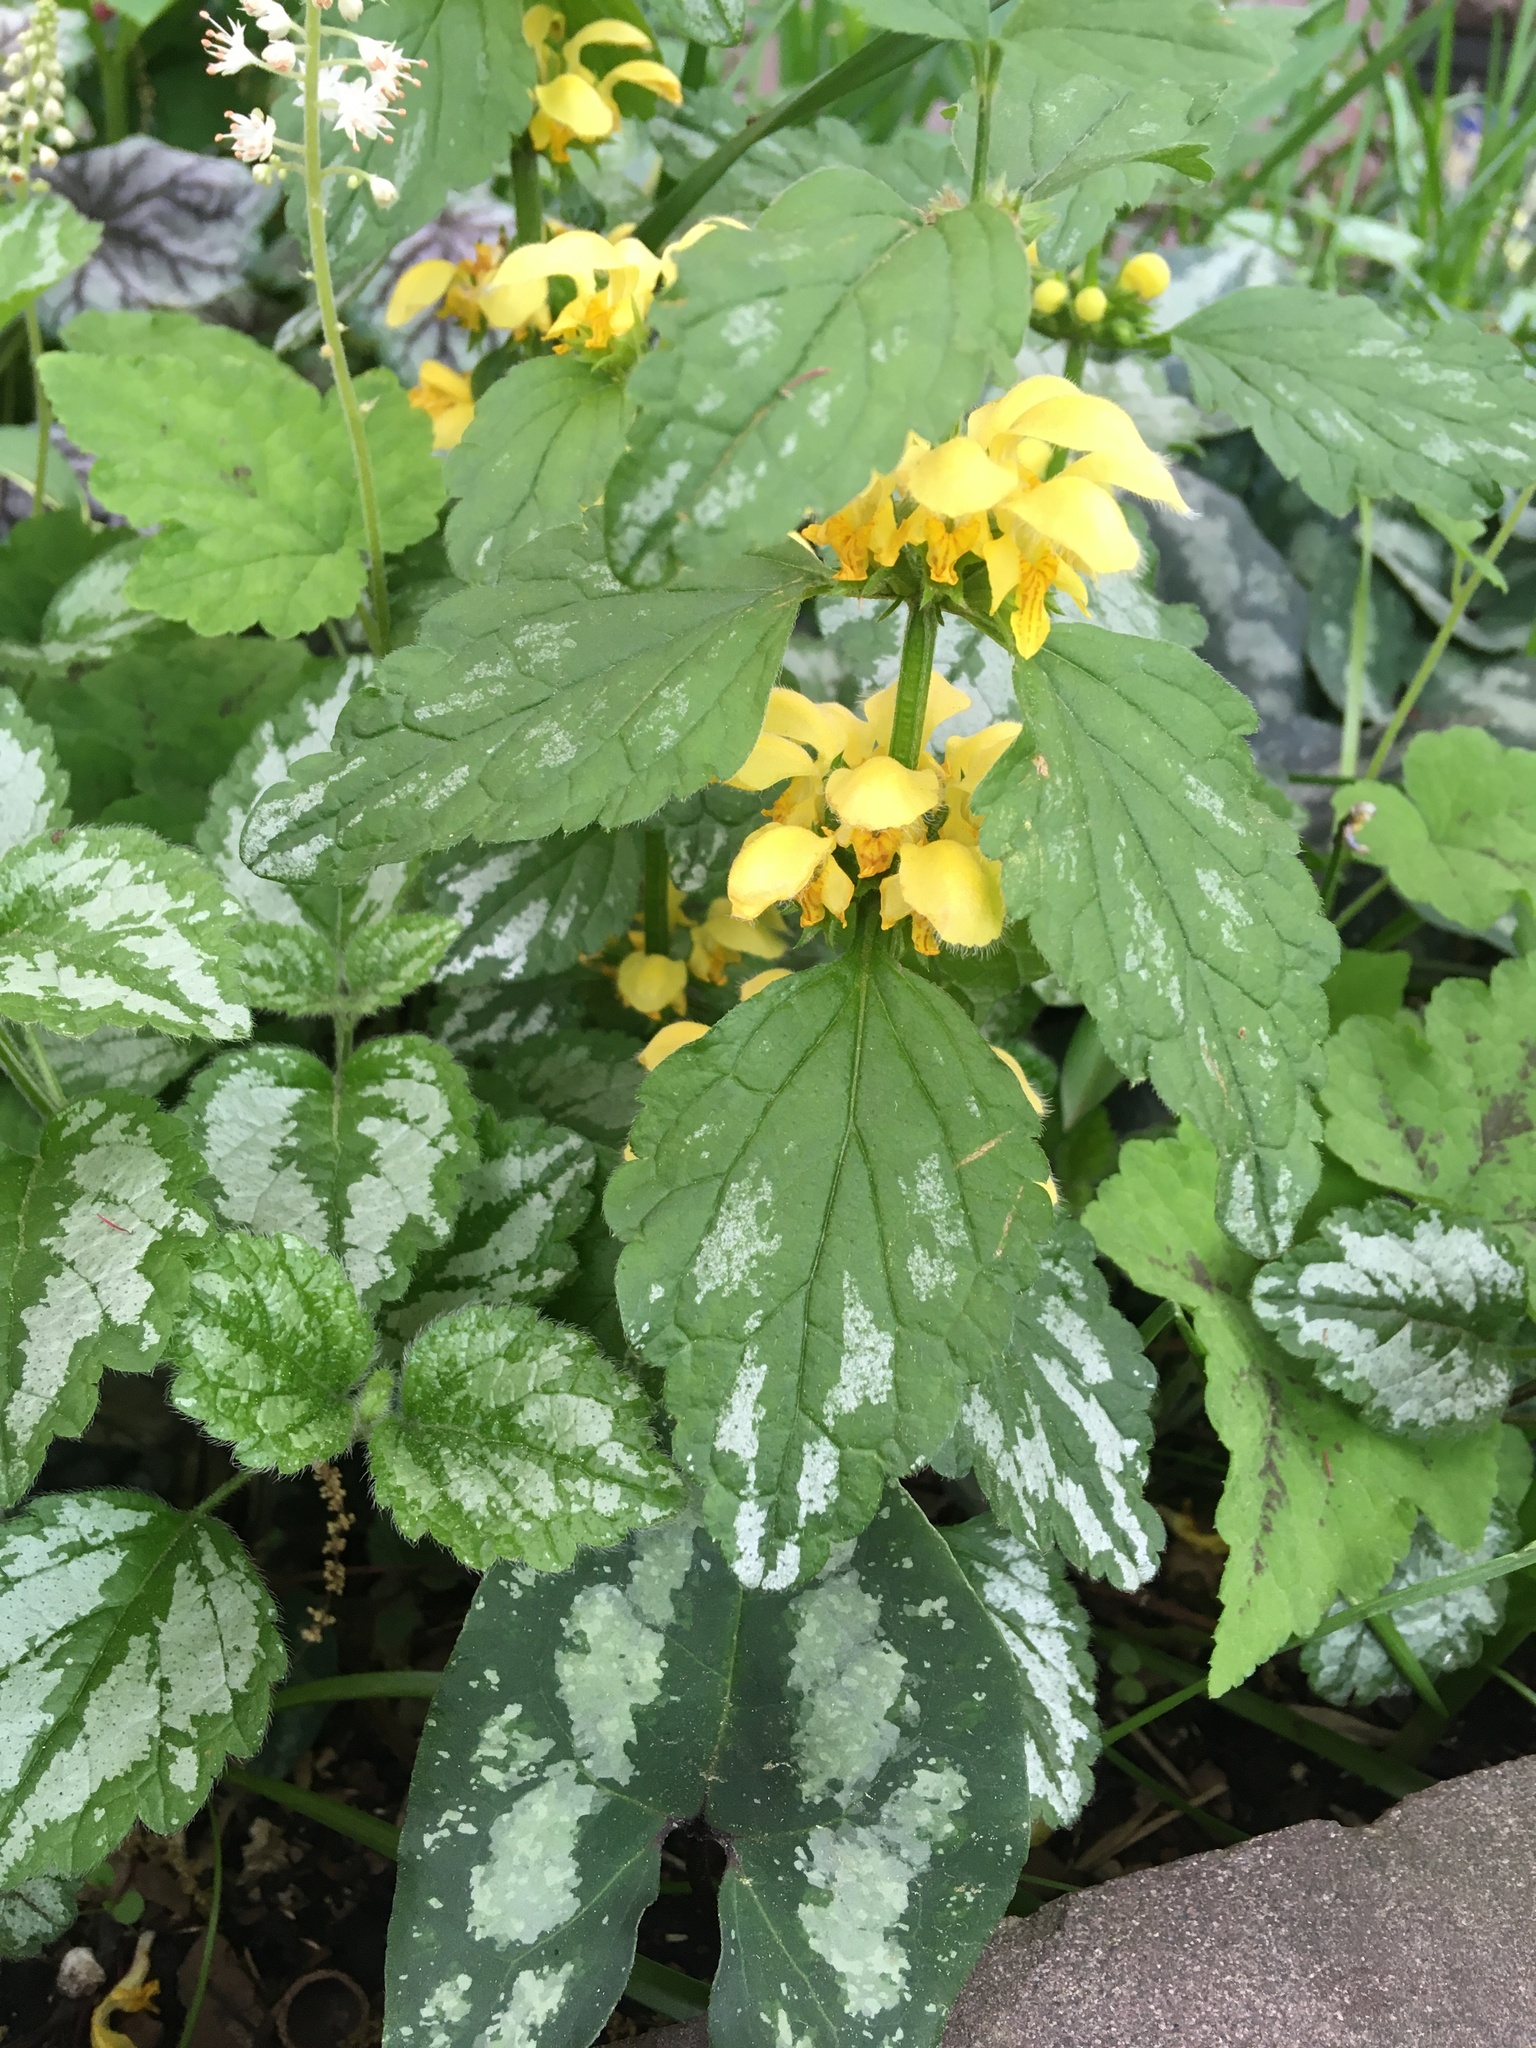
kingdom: Plantae
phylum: Tracheophyta
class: Magnoliopsida
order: Lamiales
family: Lamiaceae
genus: Lamium
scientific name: Lamium galeobdolon
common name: Yellow archangel
